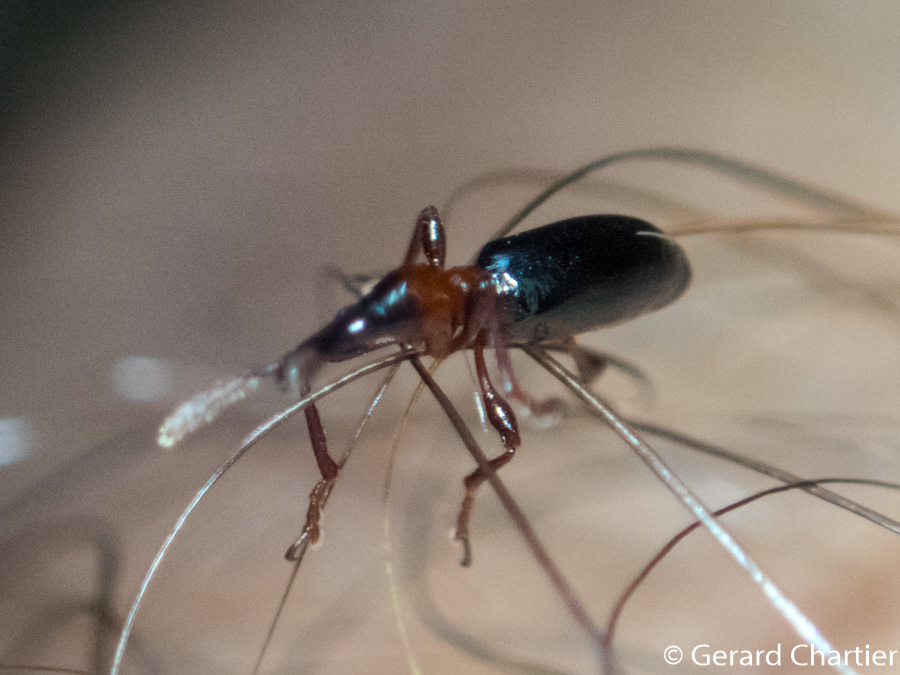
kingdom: Animalia
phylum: Arthropoda
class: Insecta
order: Coleoptera
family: Brentidae
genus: Cylas
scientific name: Cylas formicarius
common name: Sweetpotato weevil
